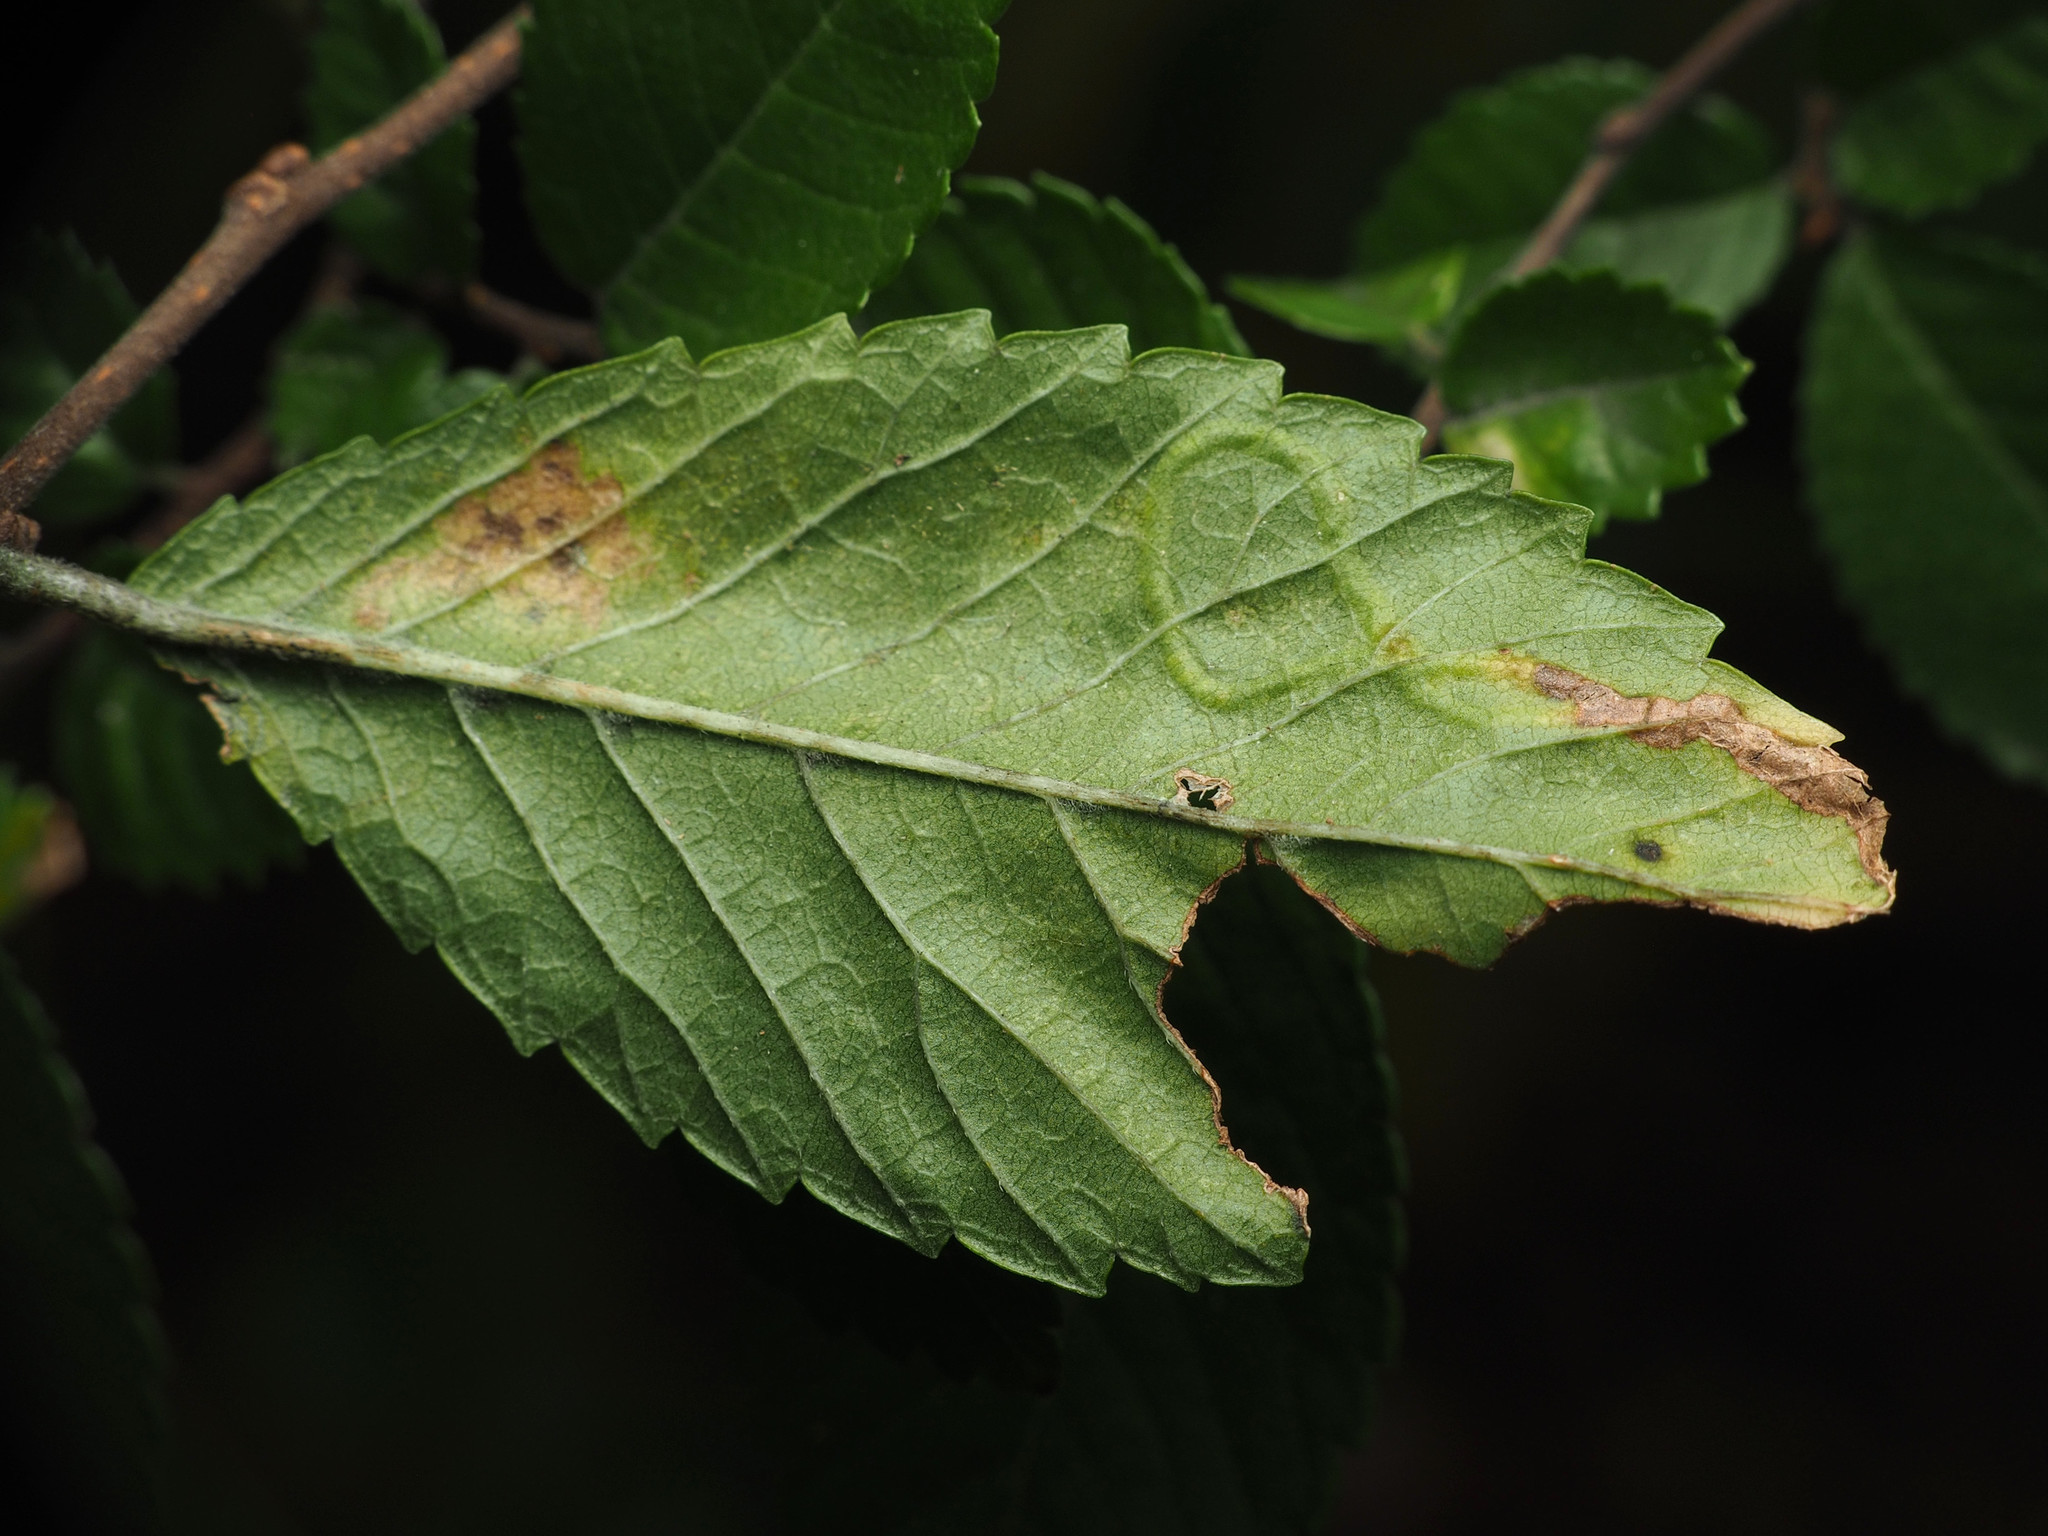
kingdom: Animalia
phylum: Arthropoda
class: Insecta
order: Diptera
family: Agromyzidae
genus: Agromyza
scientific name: Agromyza aristata
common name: Elm agromyzid leafminer
